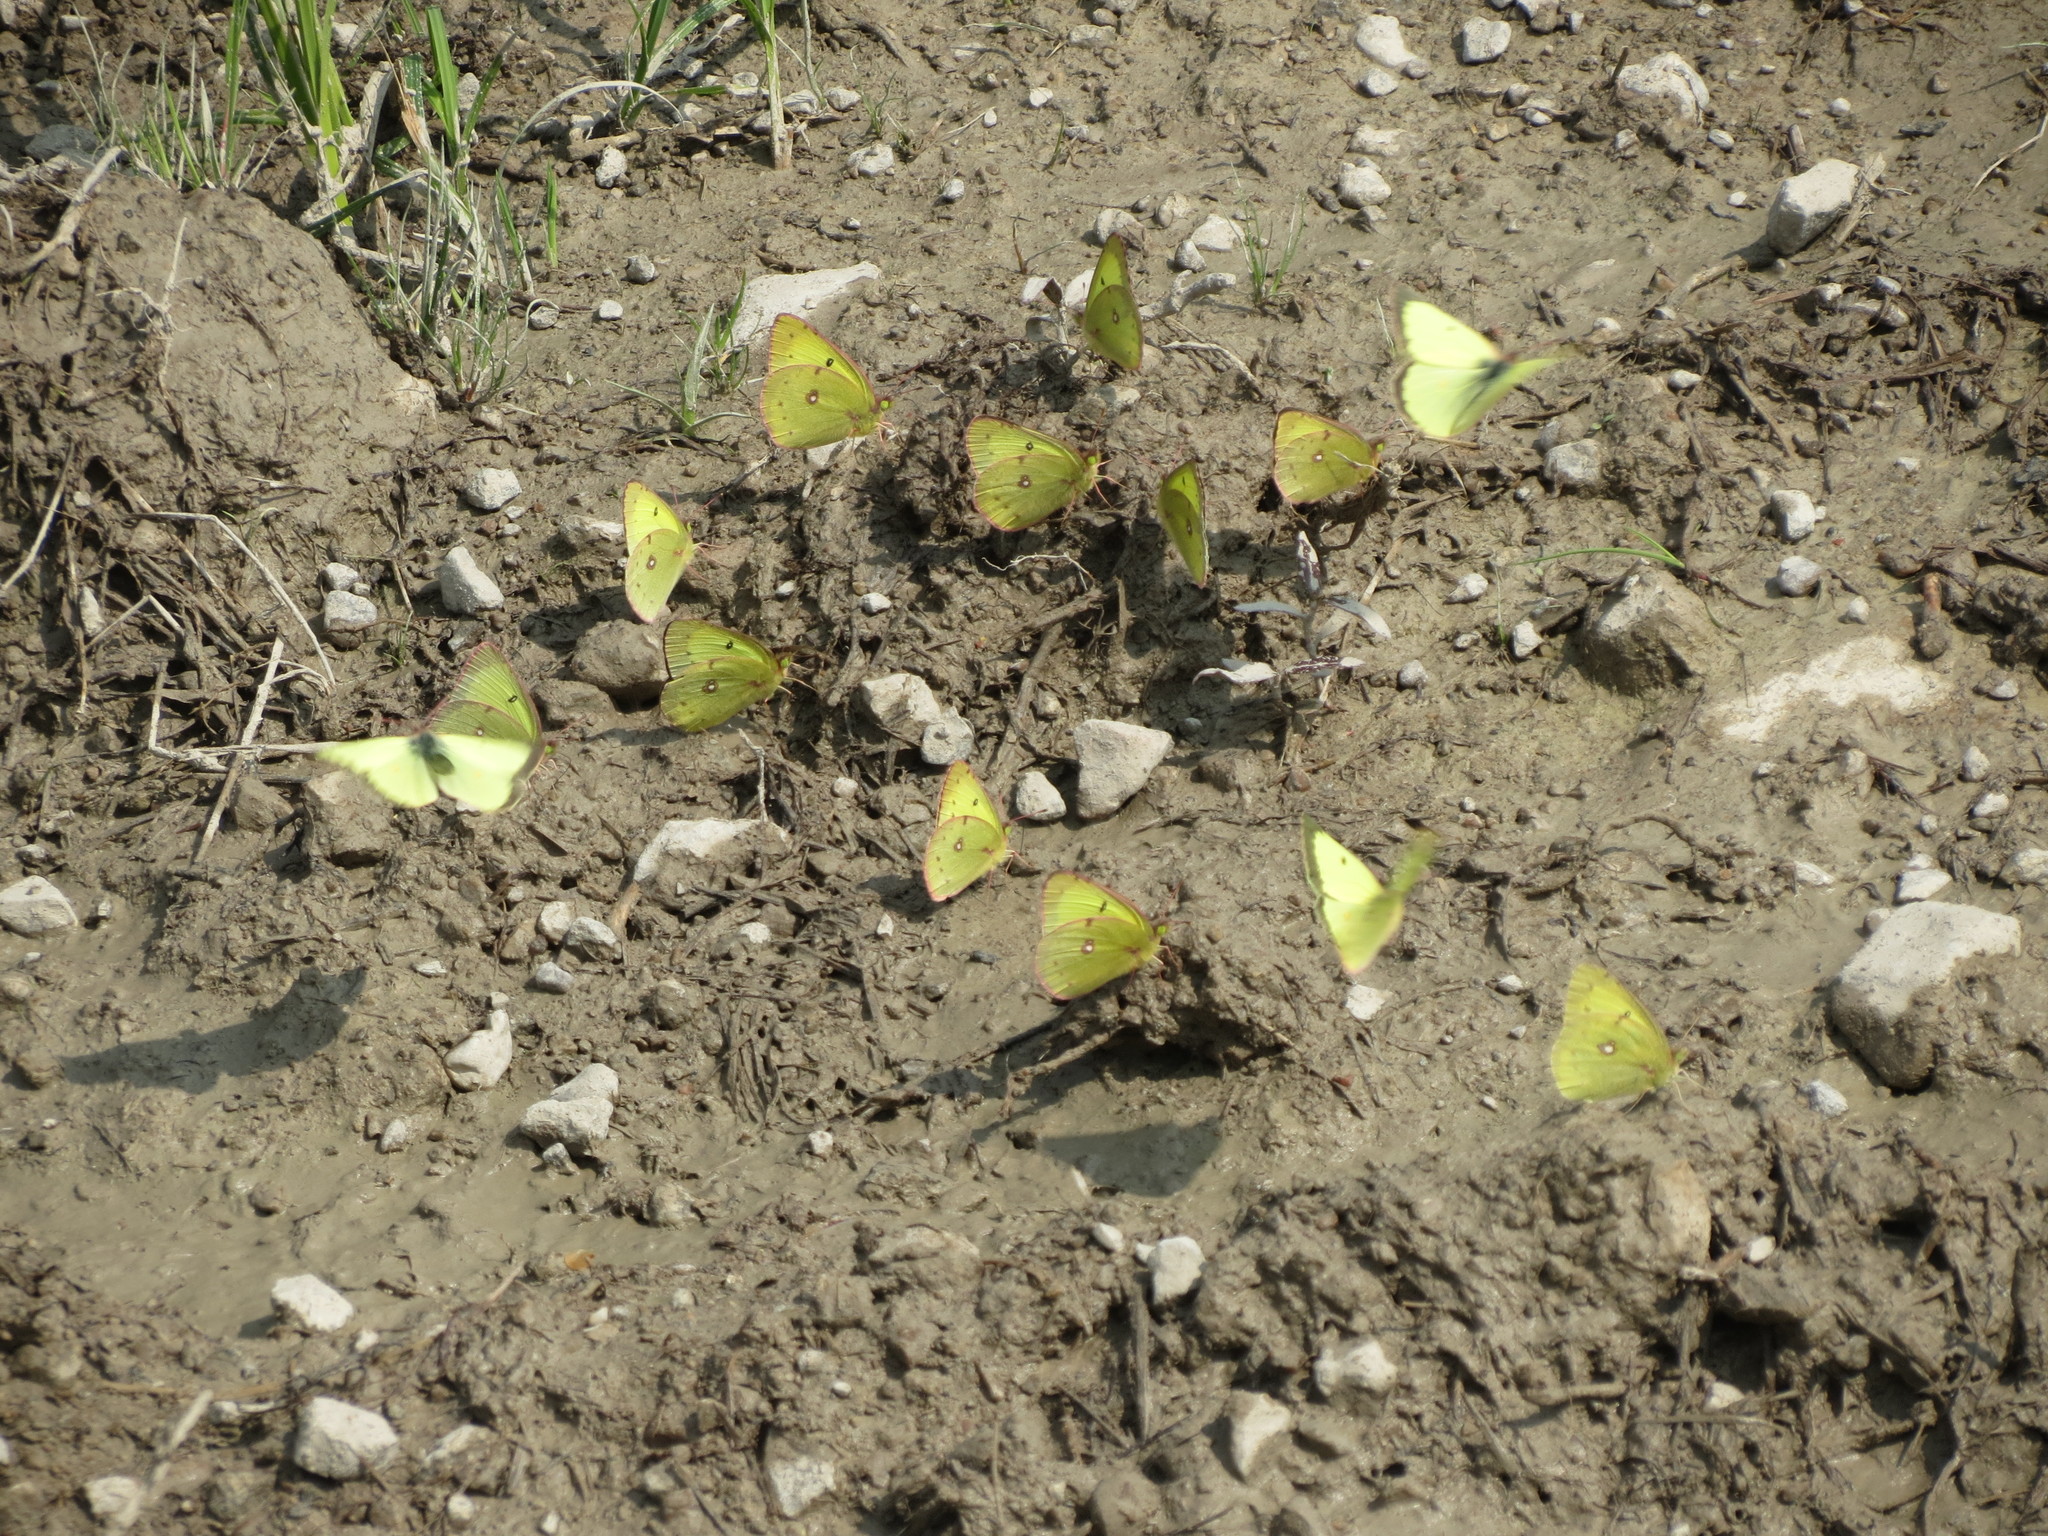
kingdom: Animalia
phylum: Arthropoda
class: Insecta
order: Lepidoptera
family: Pieridae
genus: Colias
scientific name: Colias philodice
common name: Clouded sulphur
